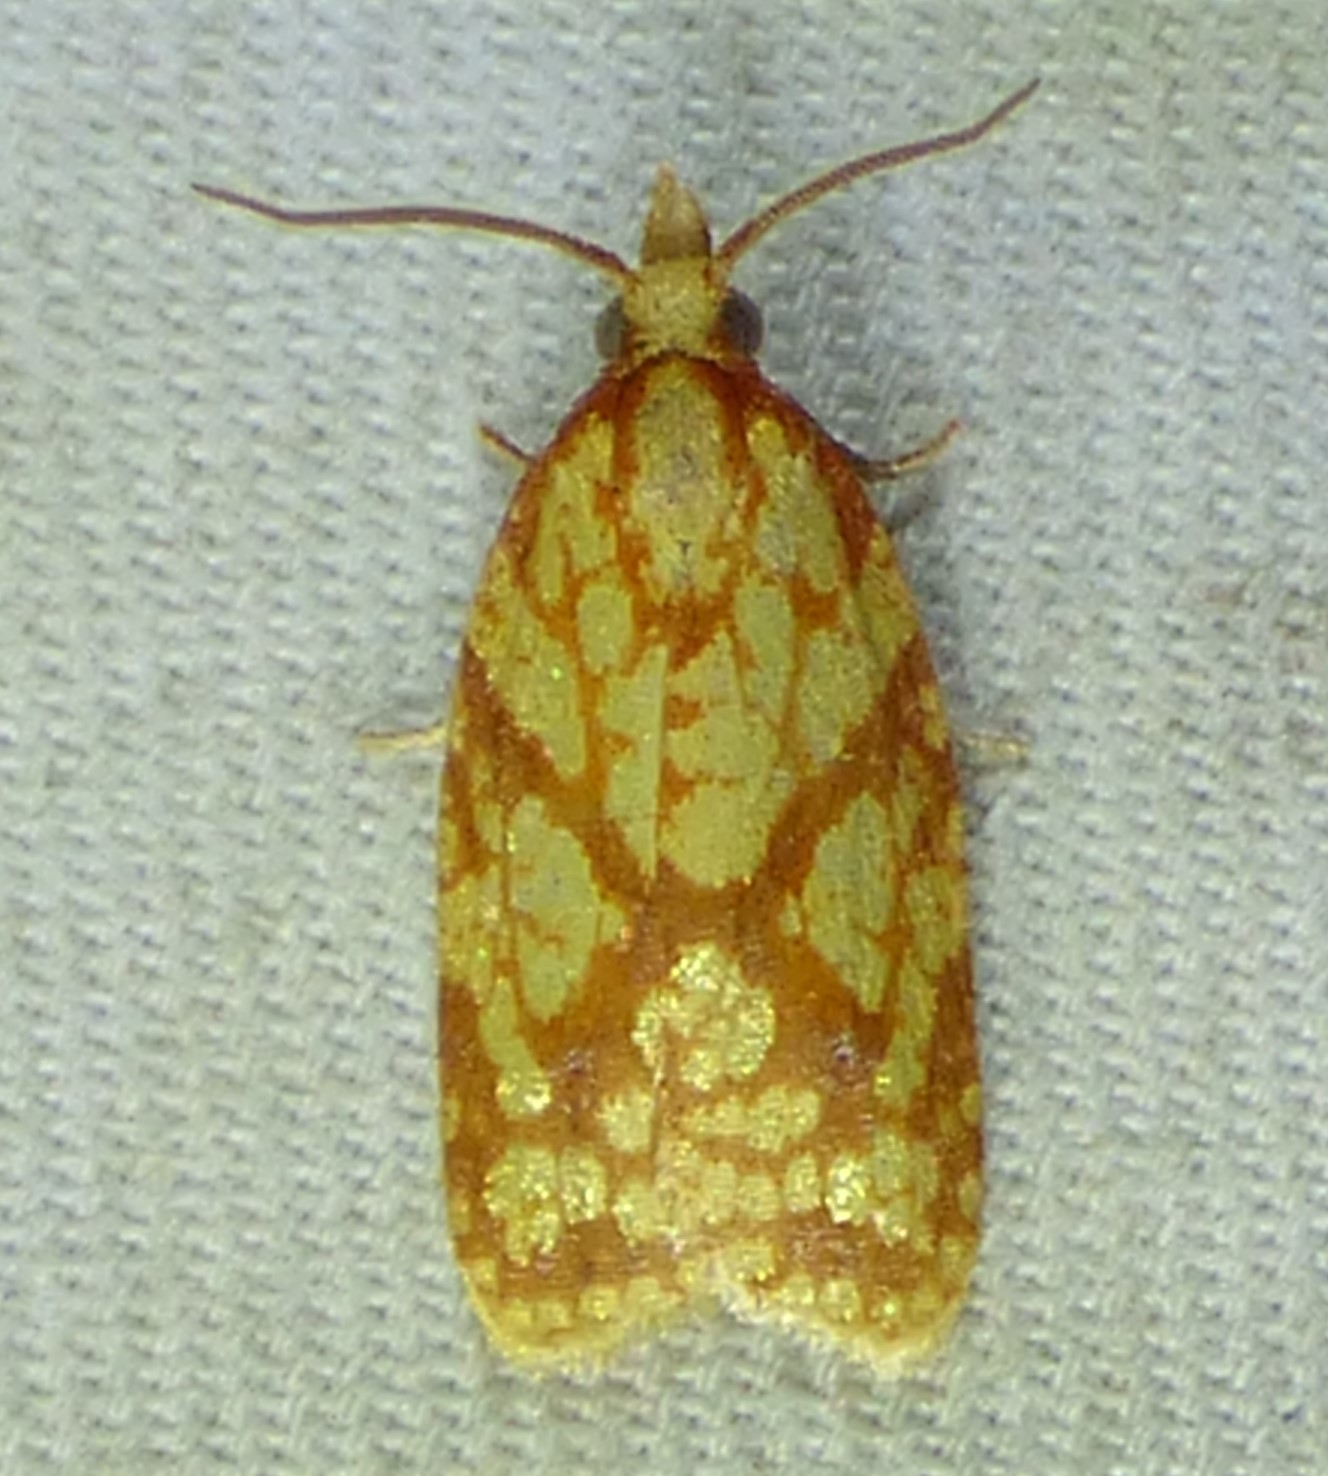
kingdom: Animalia
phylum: Arthropoda
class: Insecta
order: Lepidoptera
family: Tortricidae
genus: Sparganothis
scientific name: Sparganothis sulfureana
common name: Sparganothis fruitworm moth
